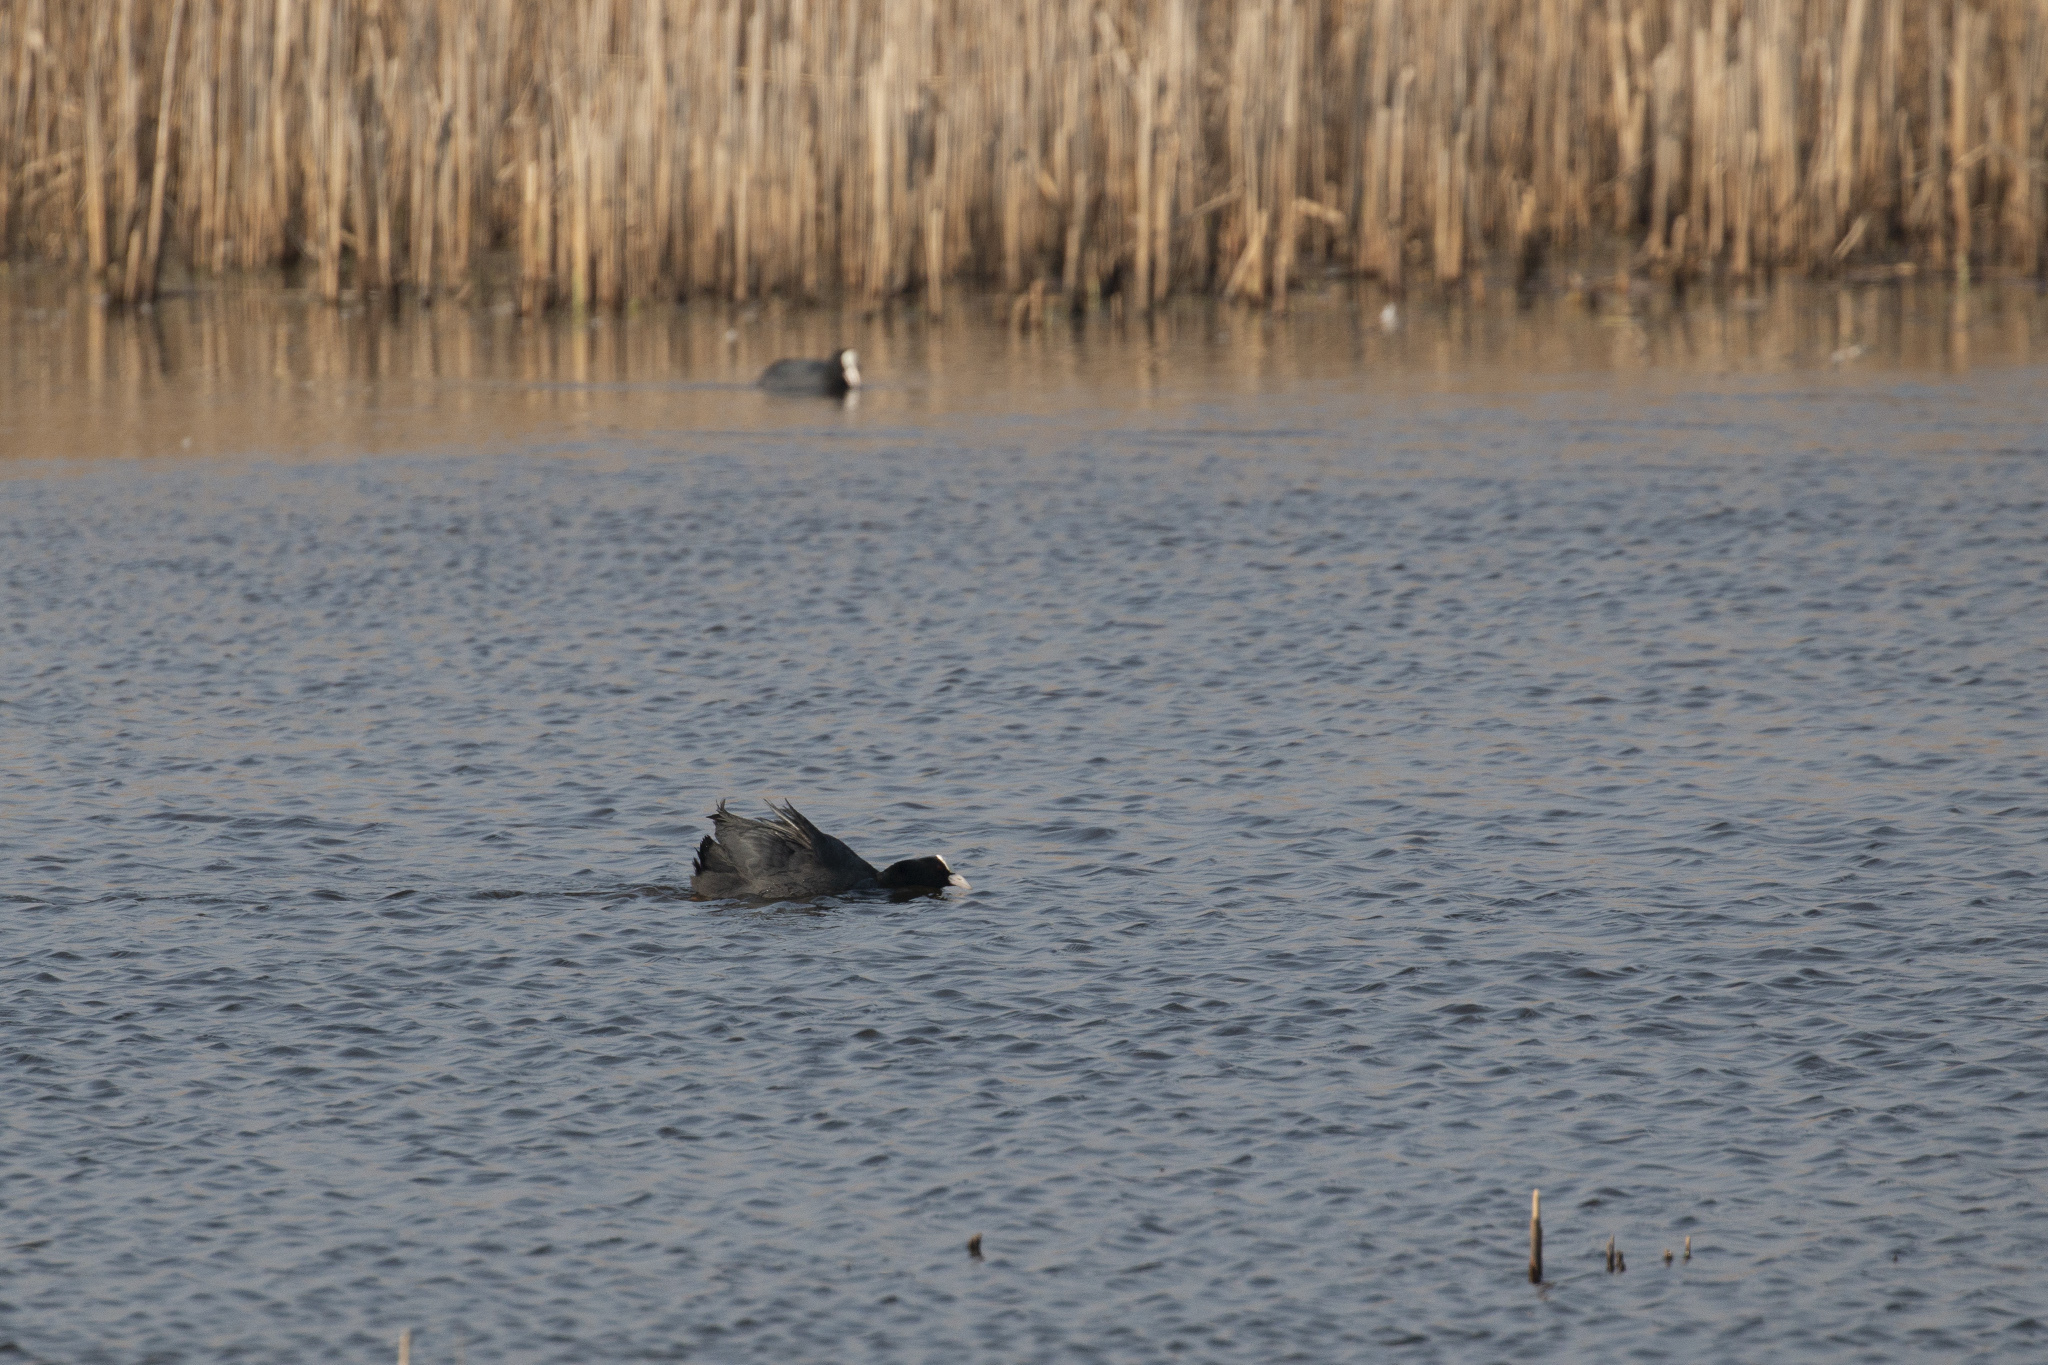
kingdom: Animalia
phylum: Chordata
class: Aves
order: Gruiformes
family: Rallidae
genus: Fulica
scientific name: Fulica atra
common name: Eurasian coot
